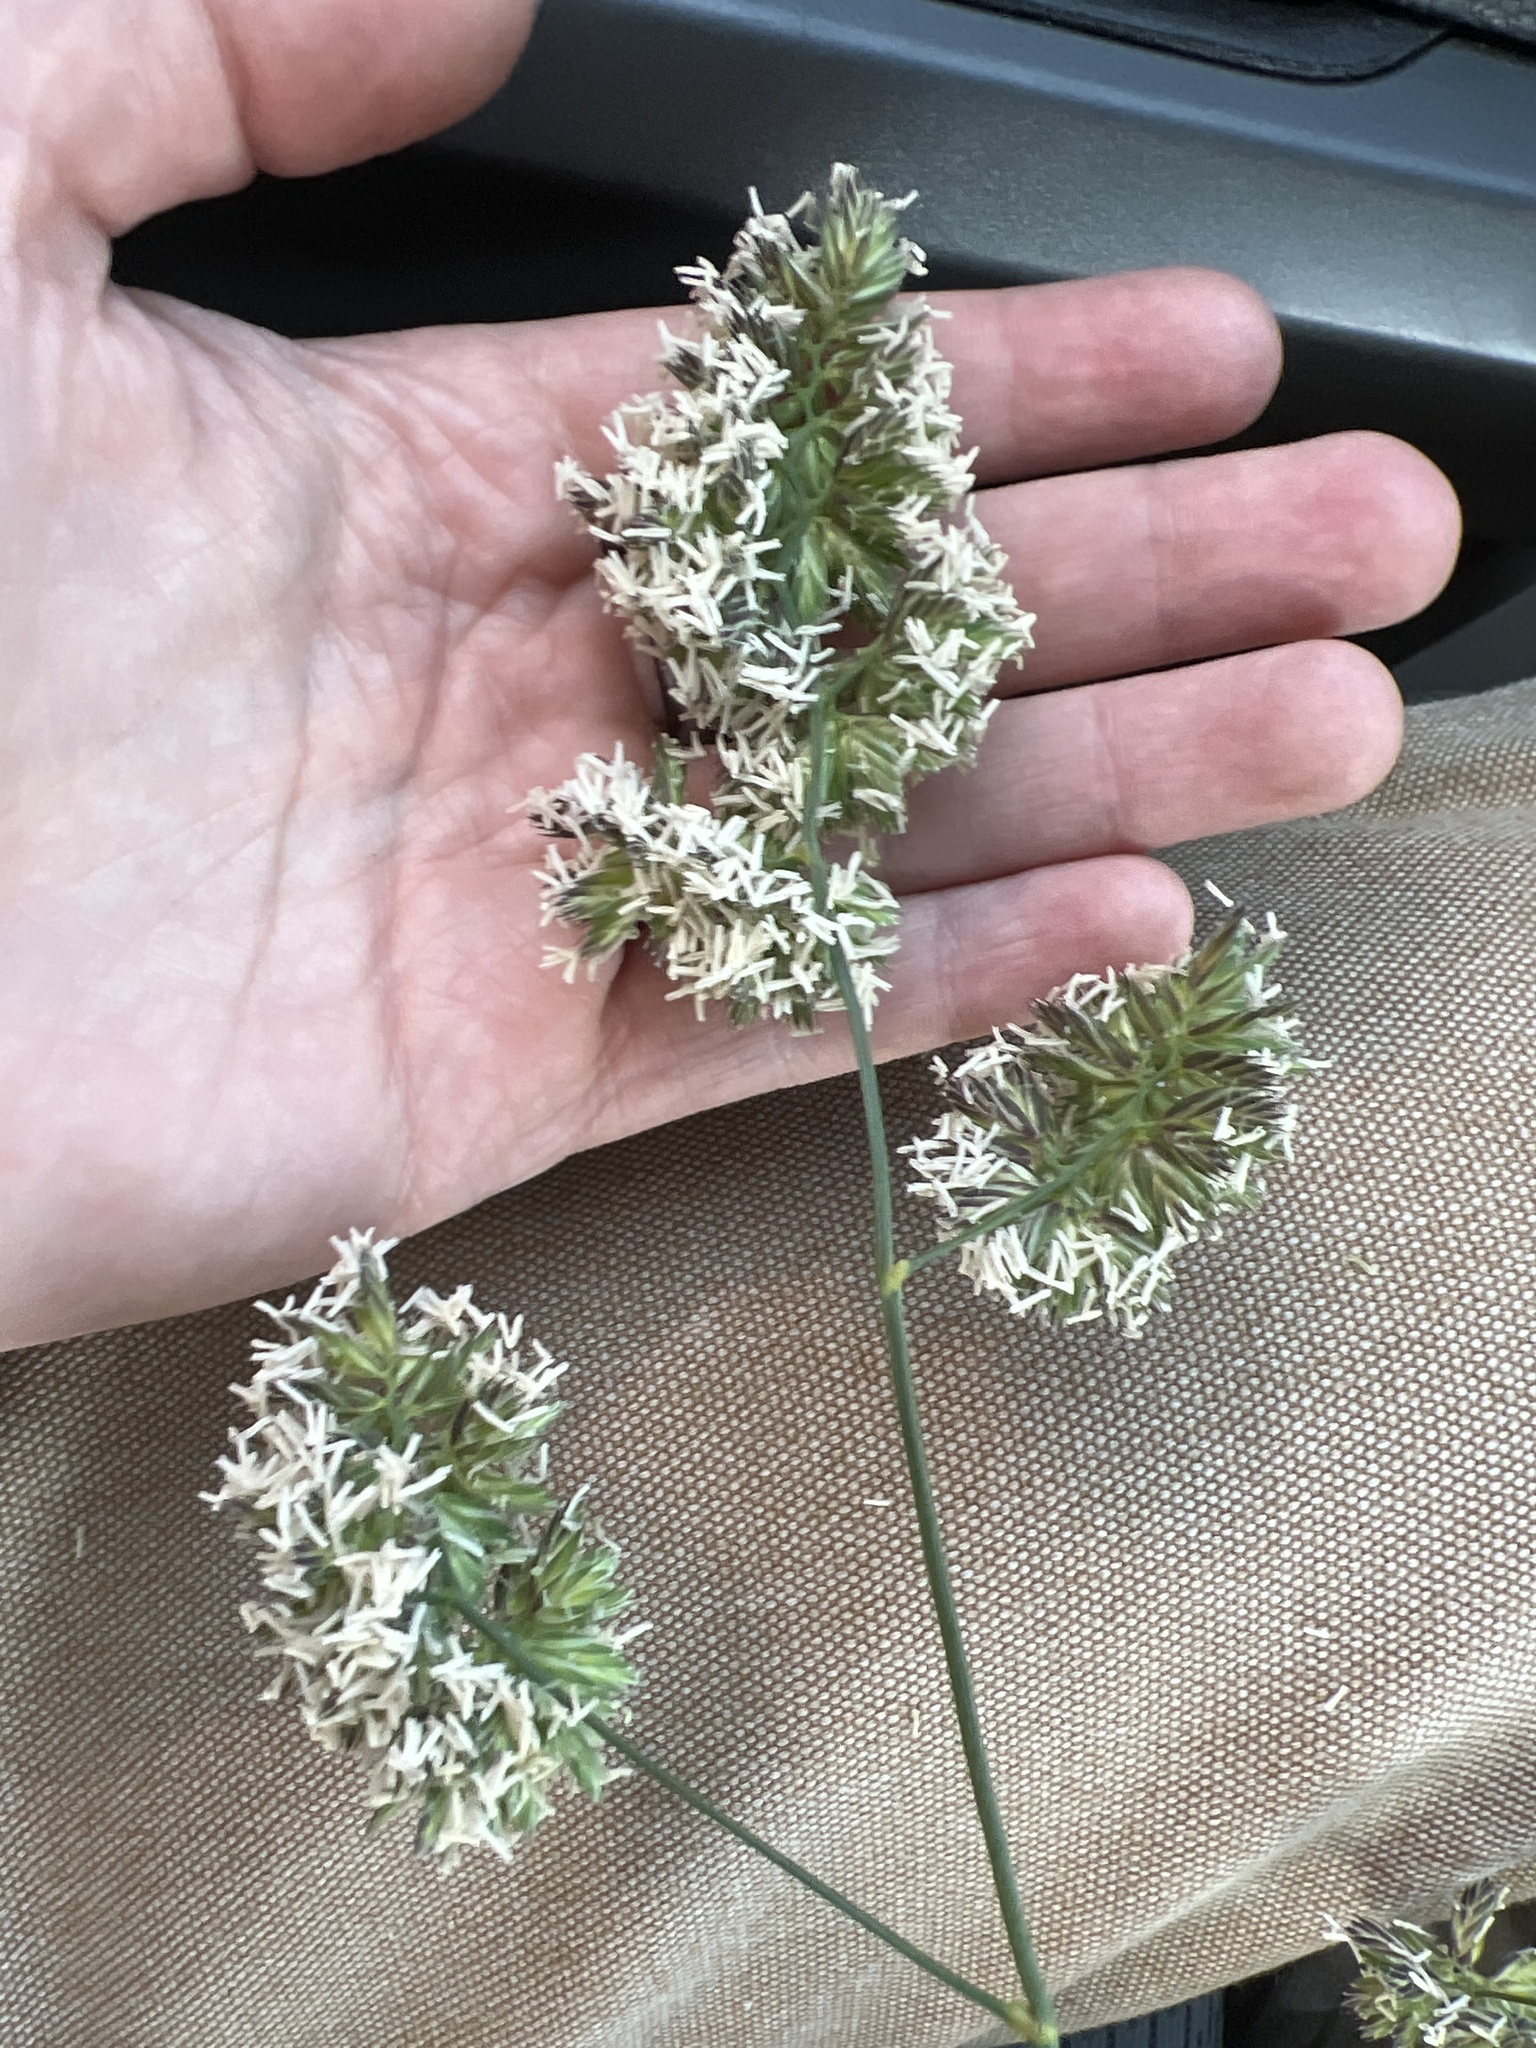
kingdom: Plantae
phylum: Tracheophyta
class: Liliopsida
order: Poales
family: Poaceae
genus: Dactylis
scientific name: Dactylis glomerata
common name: Orchardgrass
